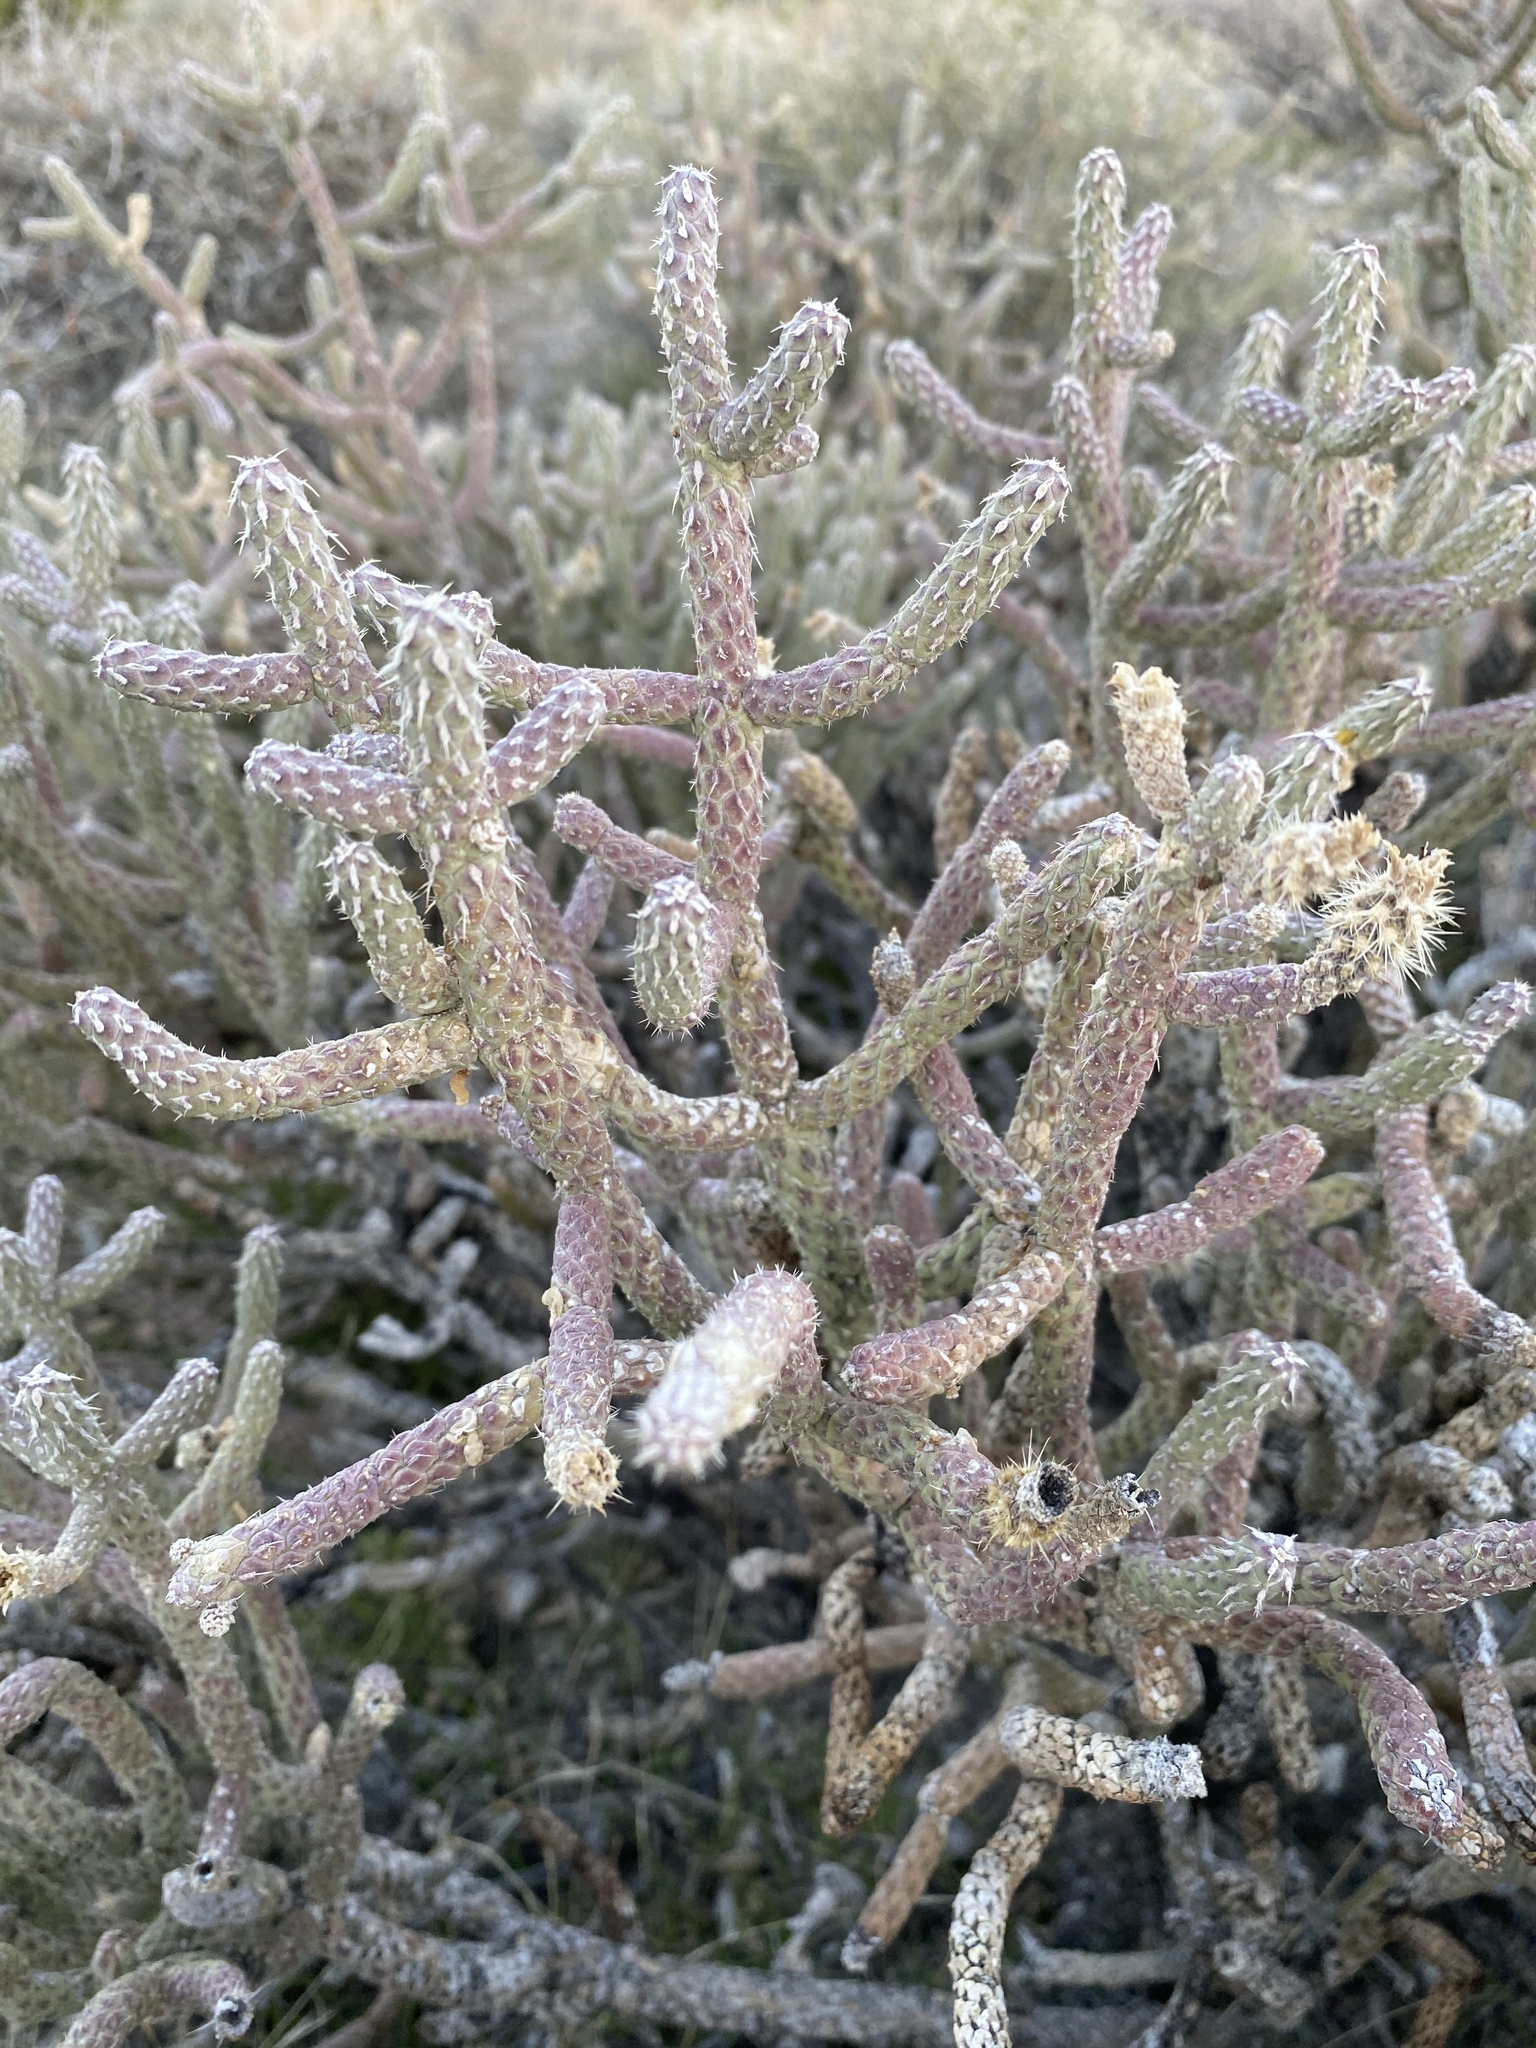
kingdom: Plantae
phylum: Tracheophyta
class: Magnoliopsida
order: Caryophyllales
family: Cactaceae
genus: Cylindropuntia
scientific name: Cylindropuntia ramosissima
